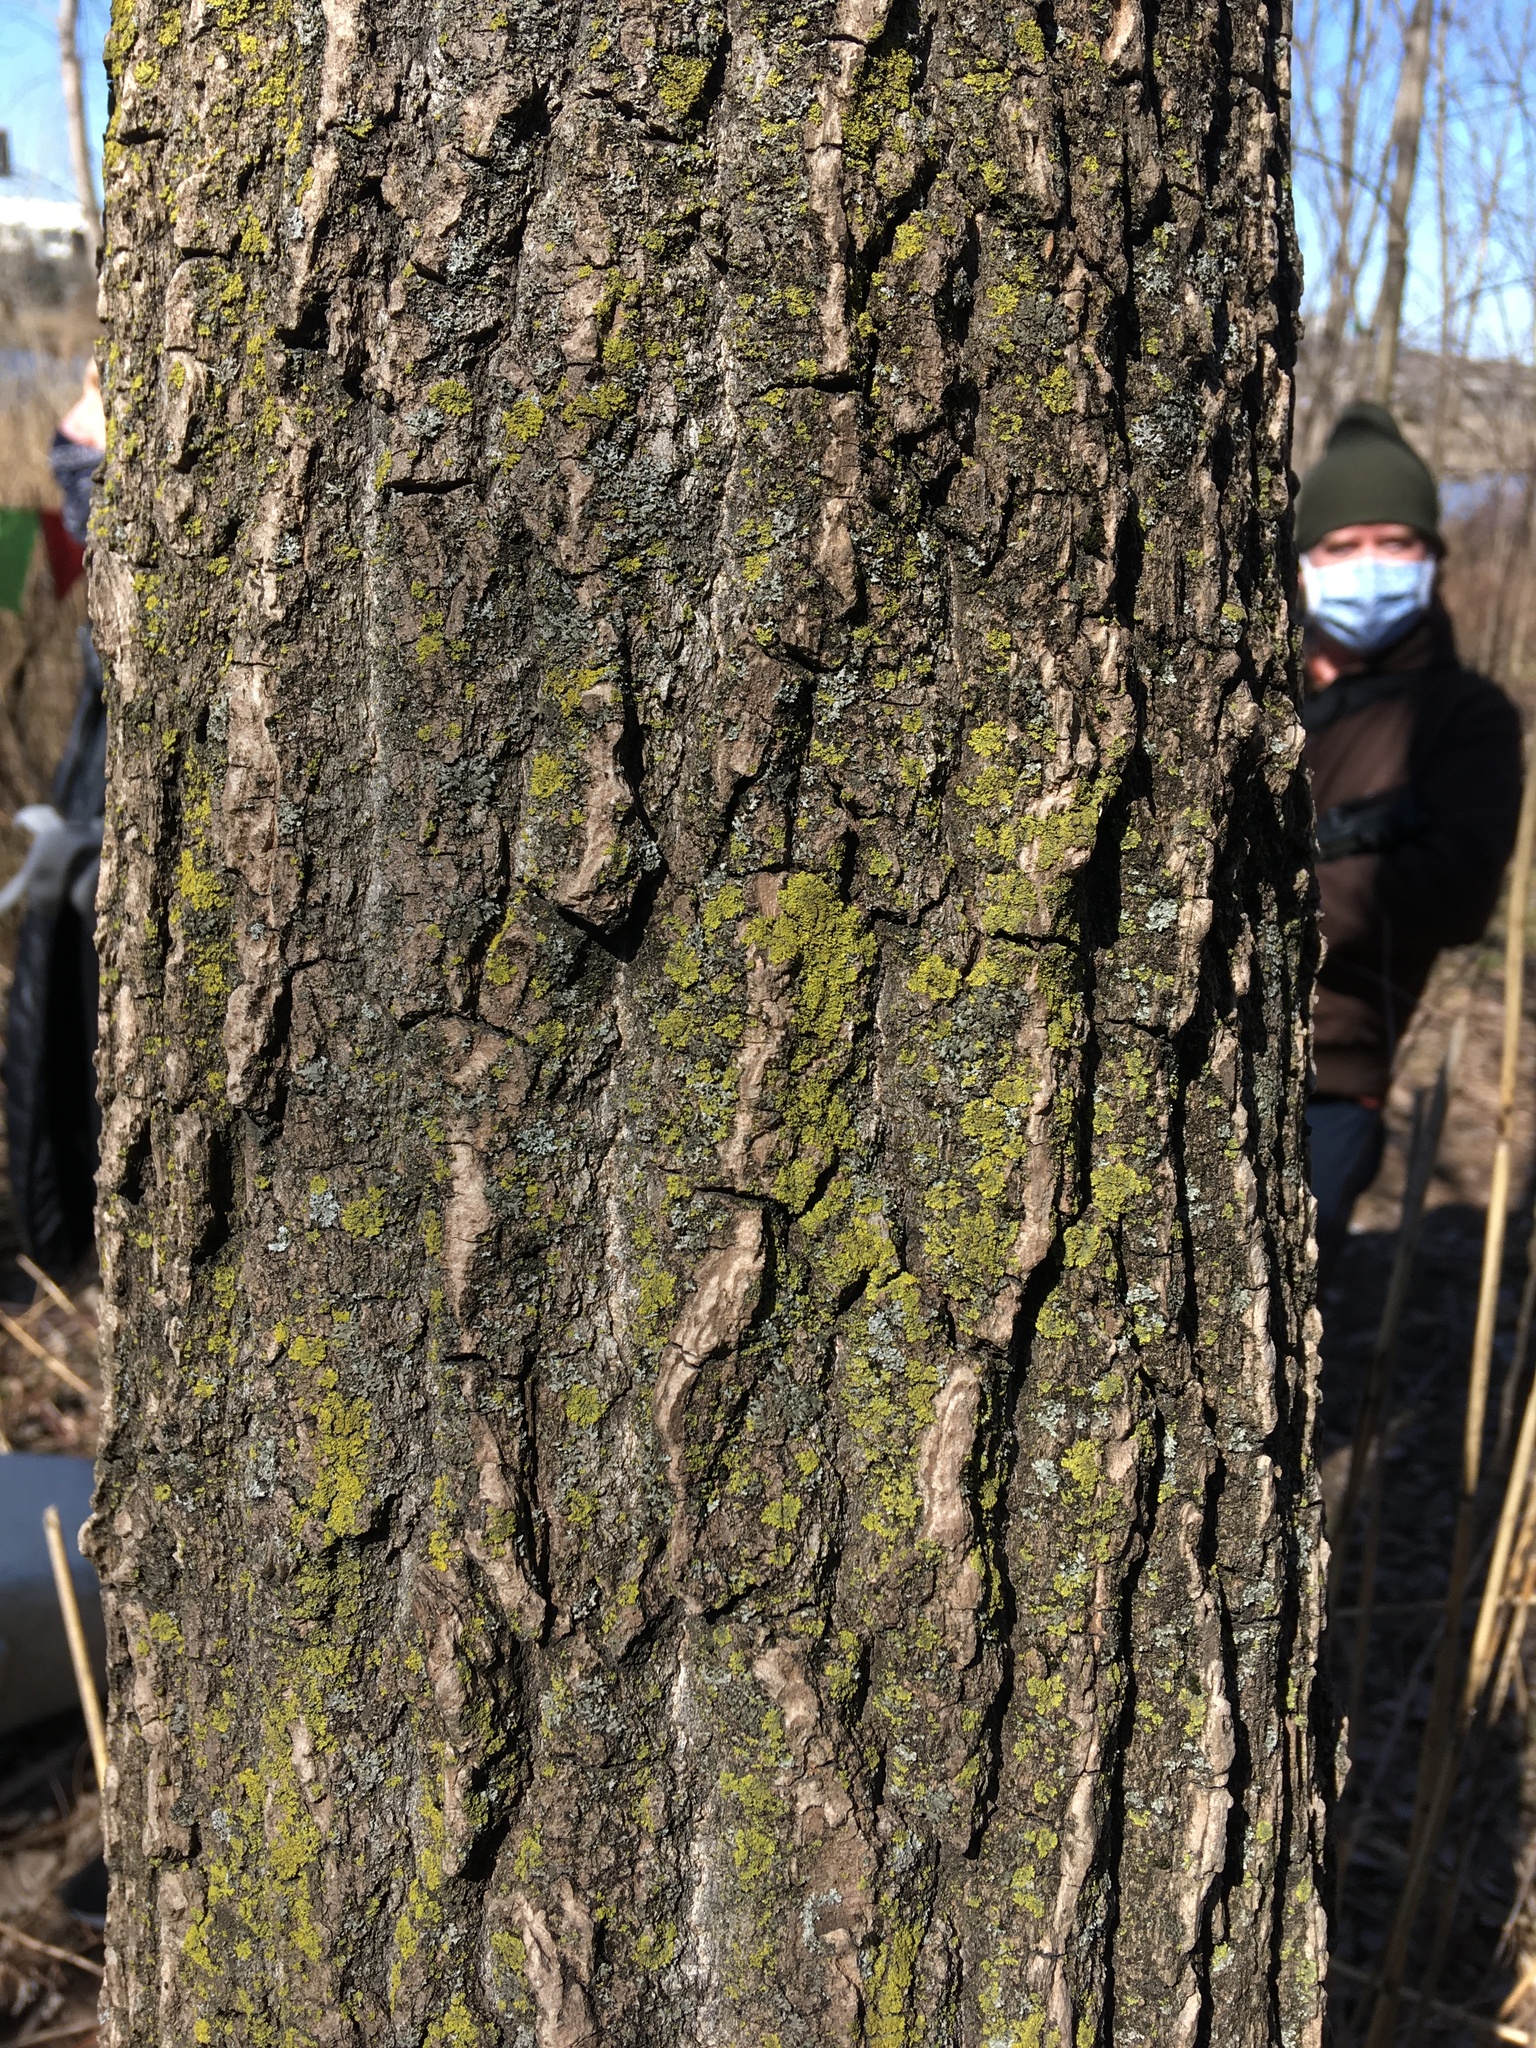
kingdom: Fungi
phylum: Ascomycota
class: Candelariomycetes
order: Candelariales
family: Candelariaceae
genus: Candelaria
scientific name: Candelaria concolor
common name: Candleflame lichen
